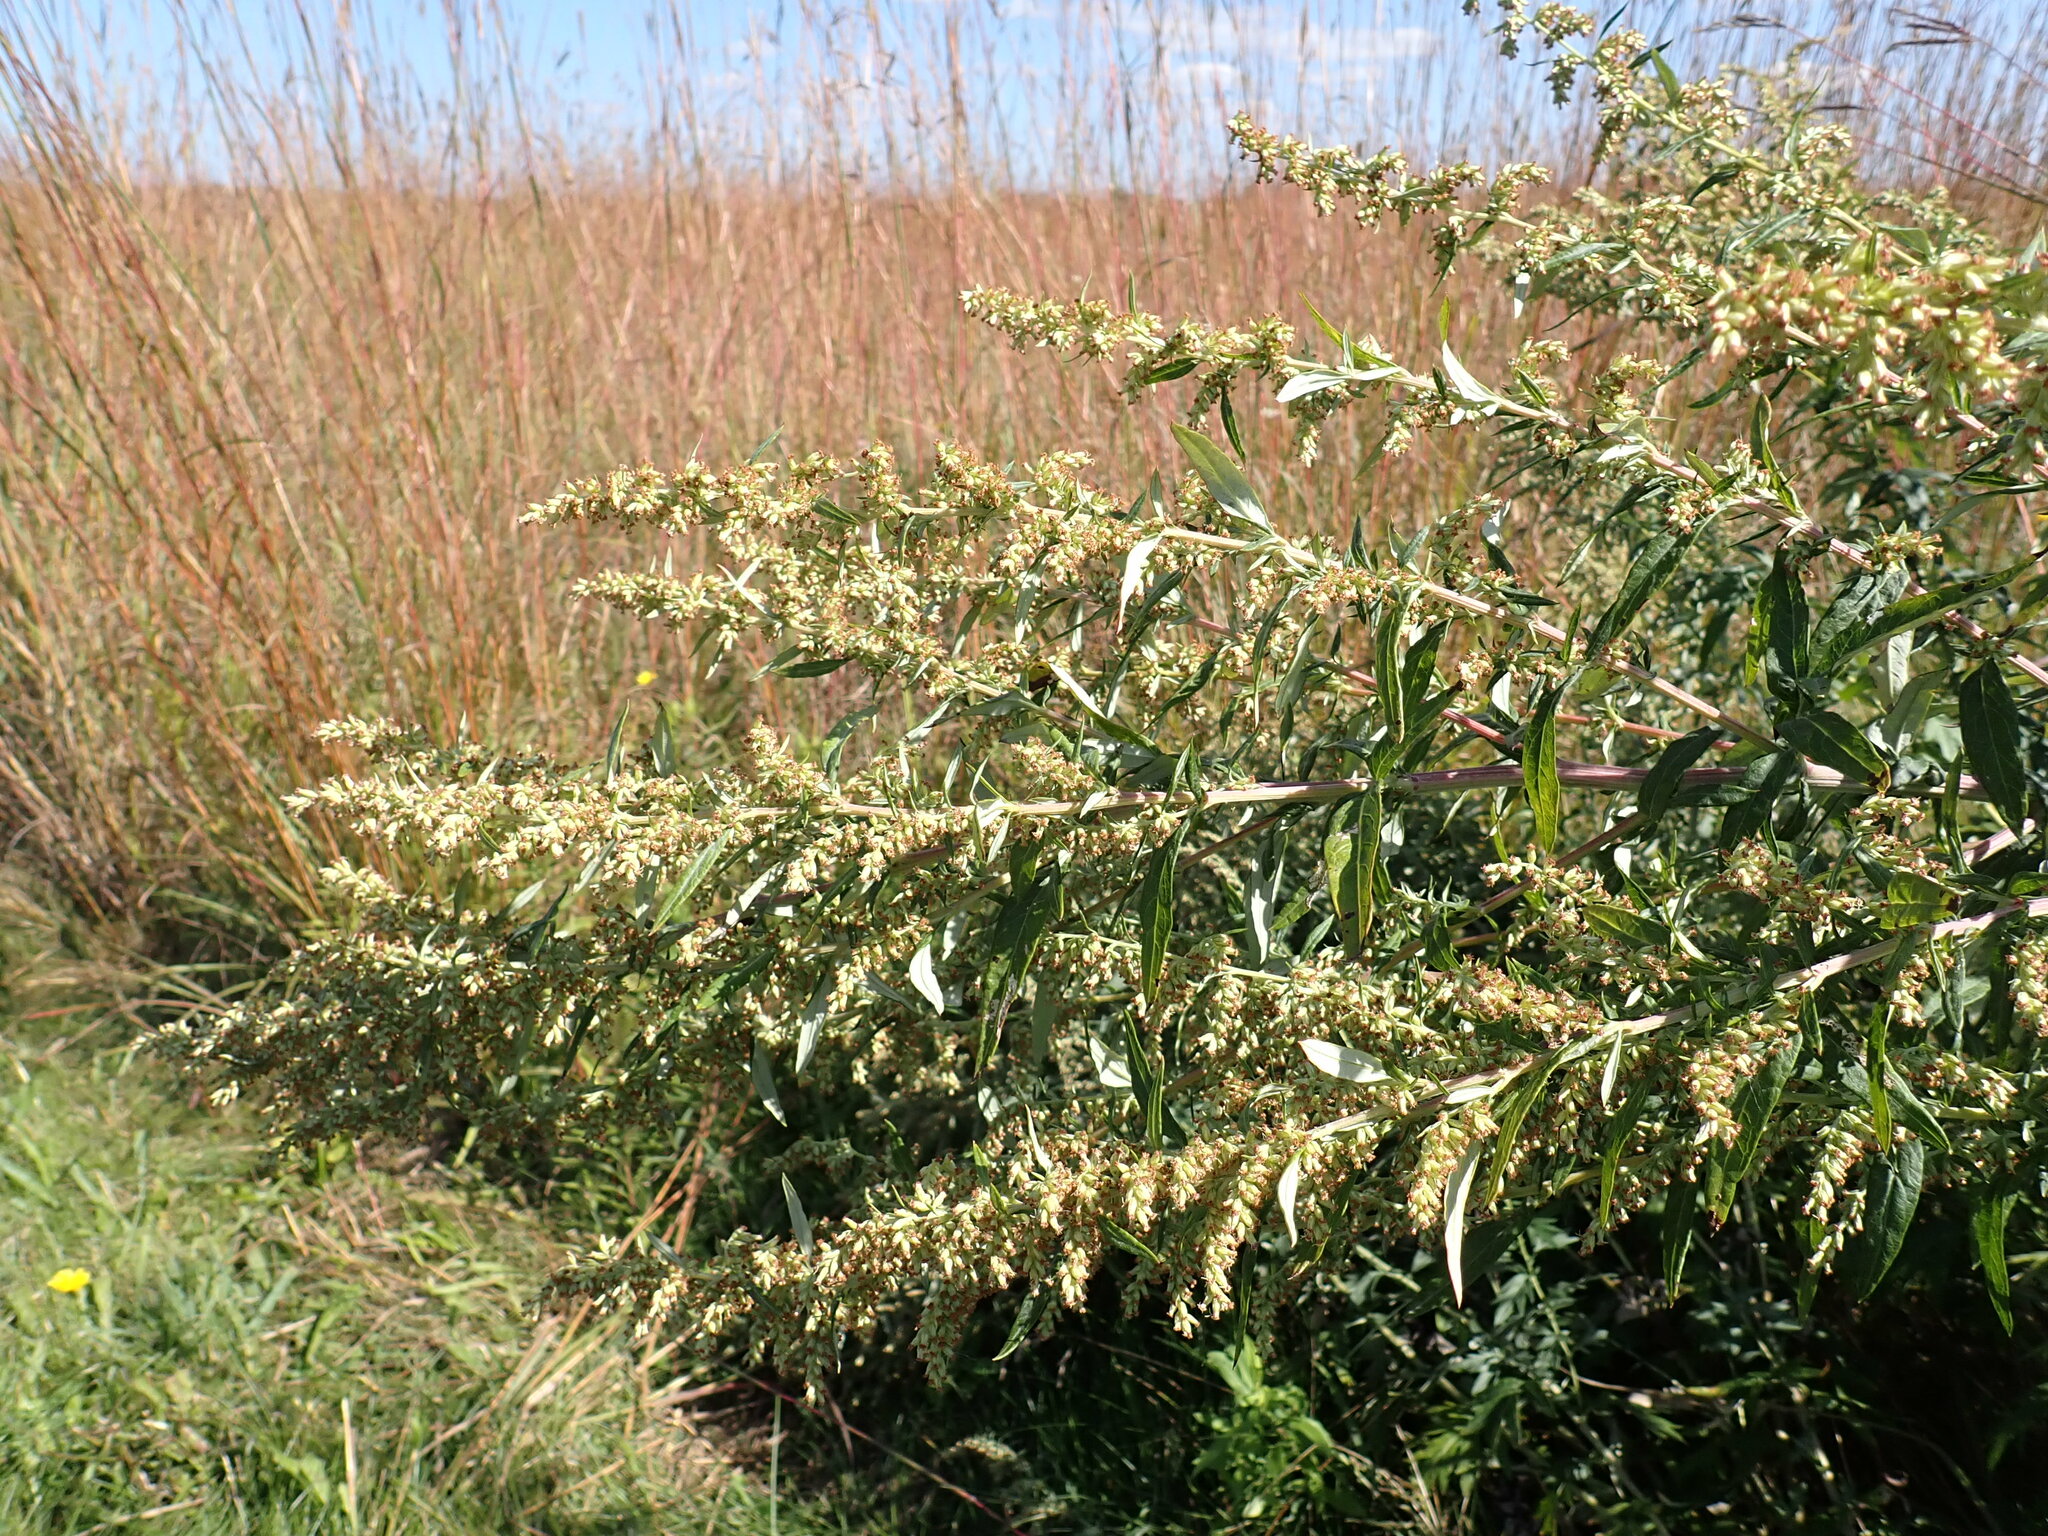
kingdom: Plantae
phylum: Tracheophyta
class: Magnoliopsida
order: Asterales
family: Asteraceae
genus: Artemisia
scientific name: Artemisia vulgaris
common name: Mugwort
